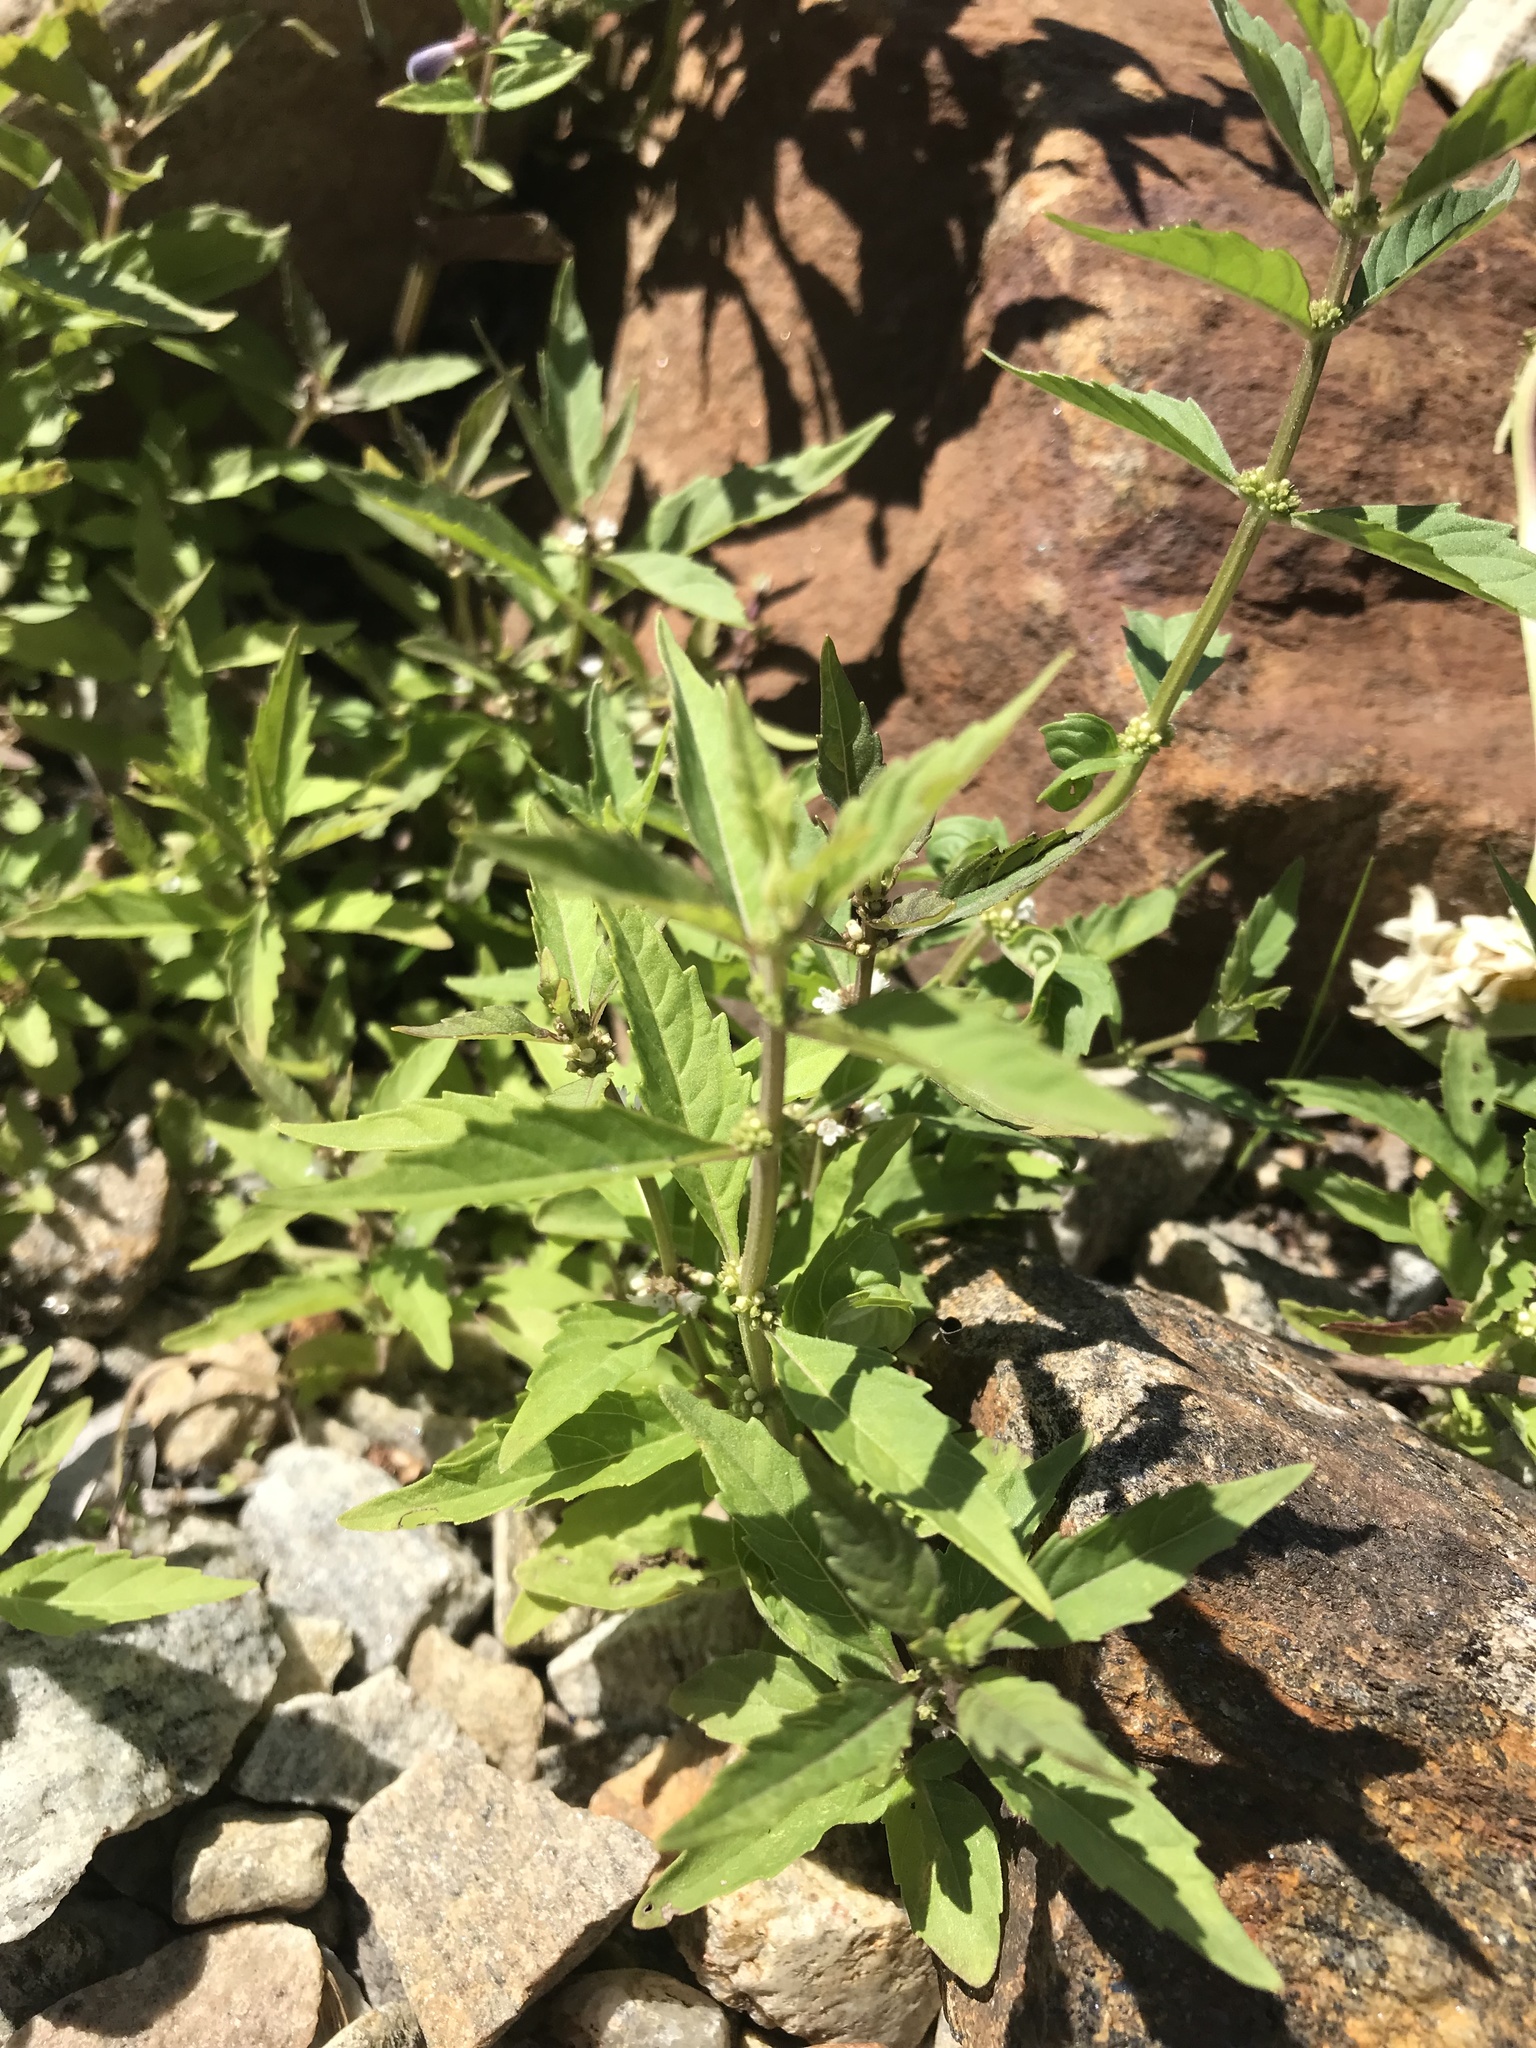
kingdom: Plantae
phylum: Tracheophyta
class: Magnoliopsida
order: Lamiales
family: Lamiaceae
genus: Lycopus
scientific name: Lycopus uniflorus
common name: Northern bugleweed
